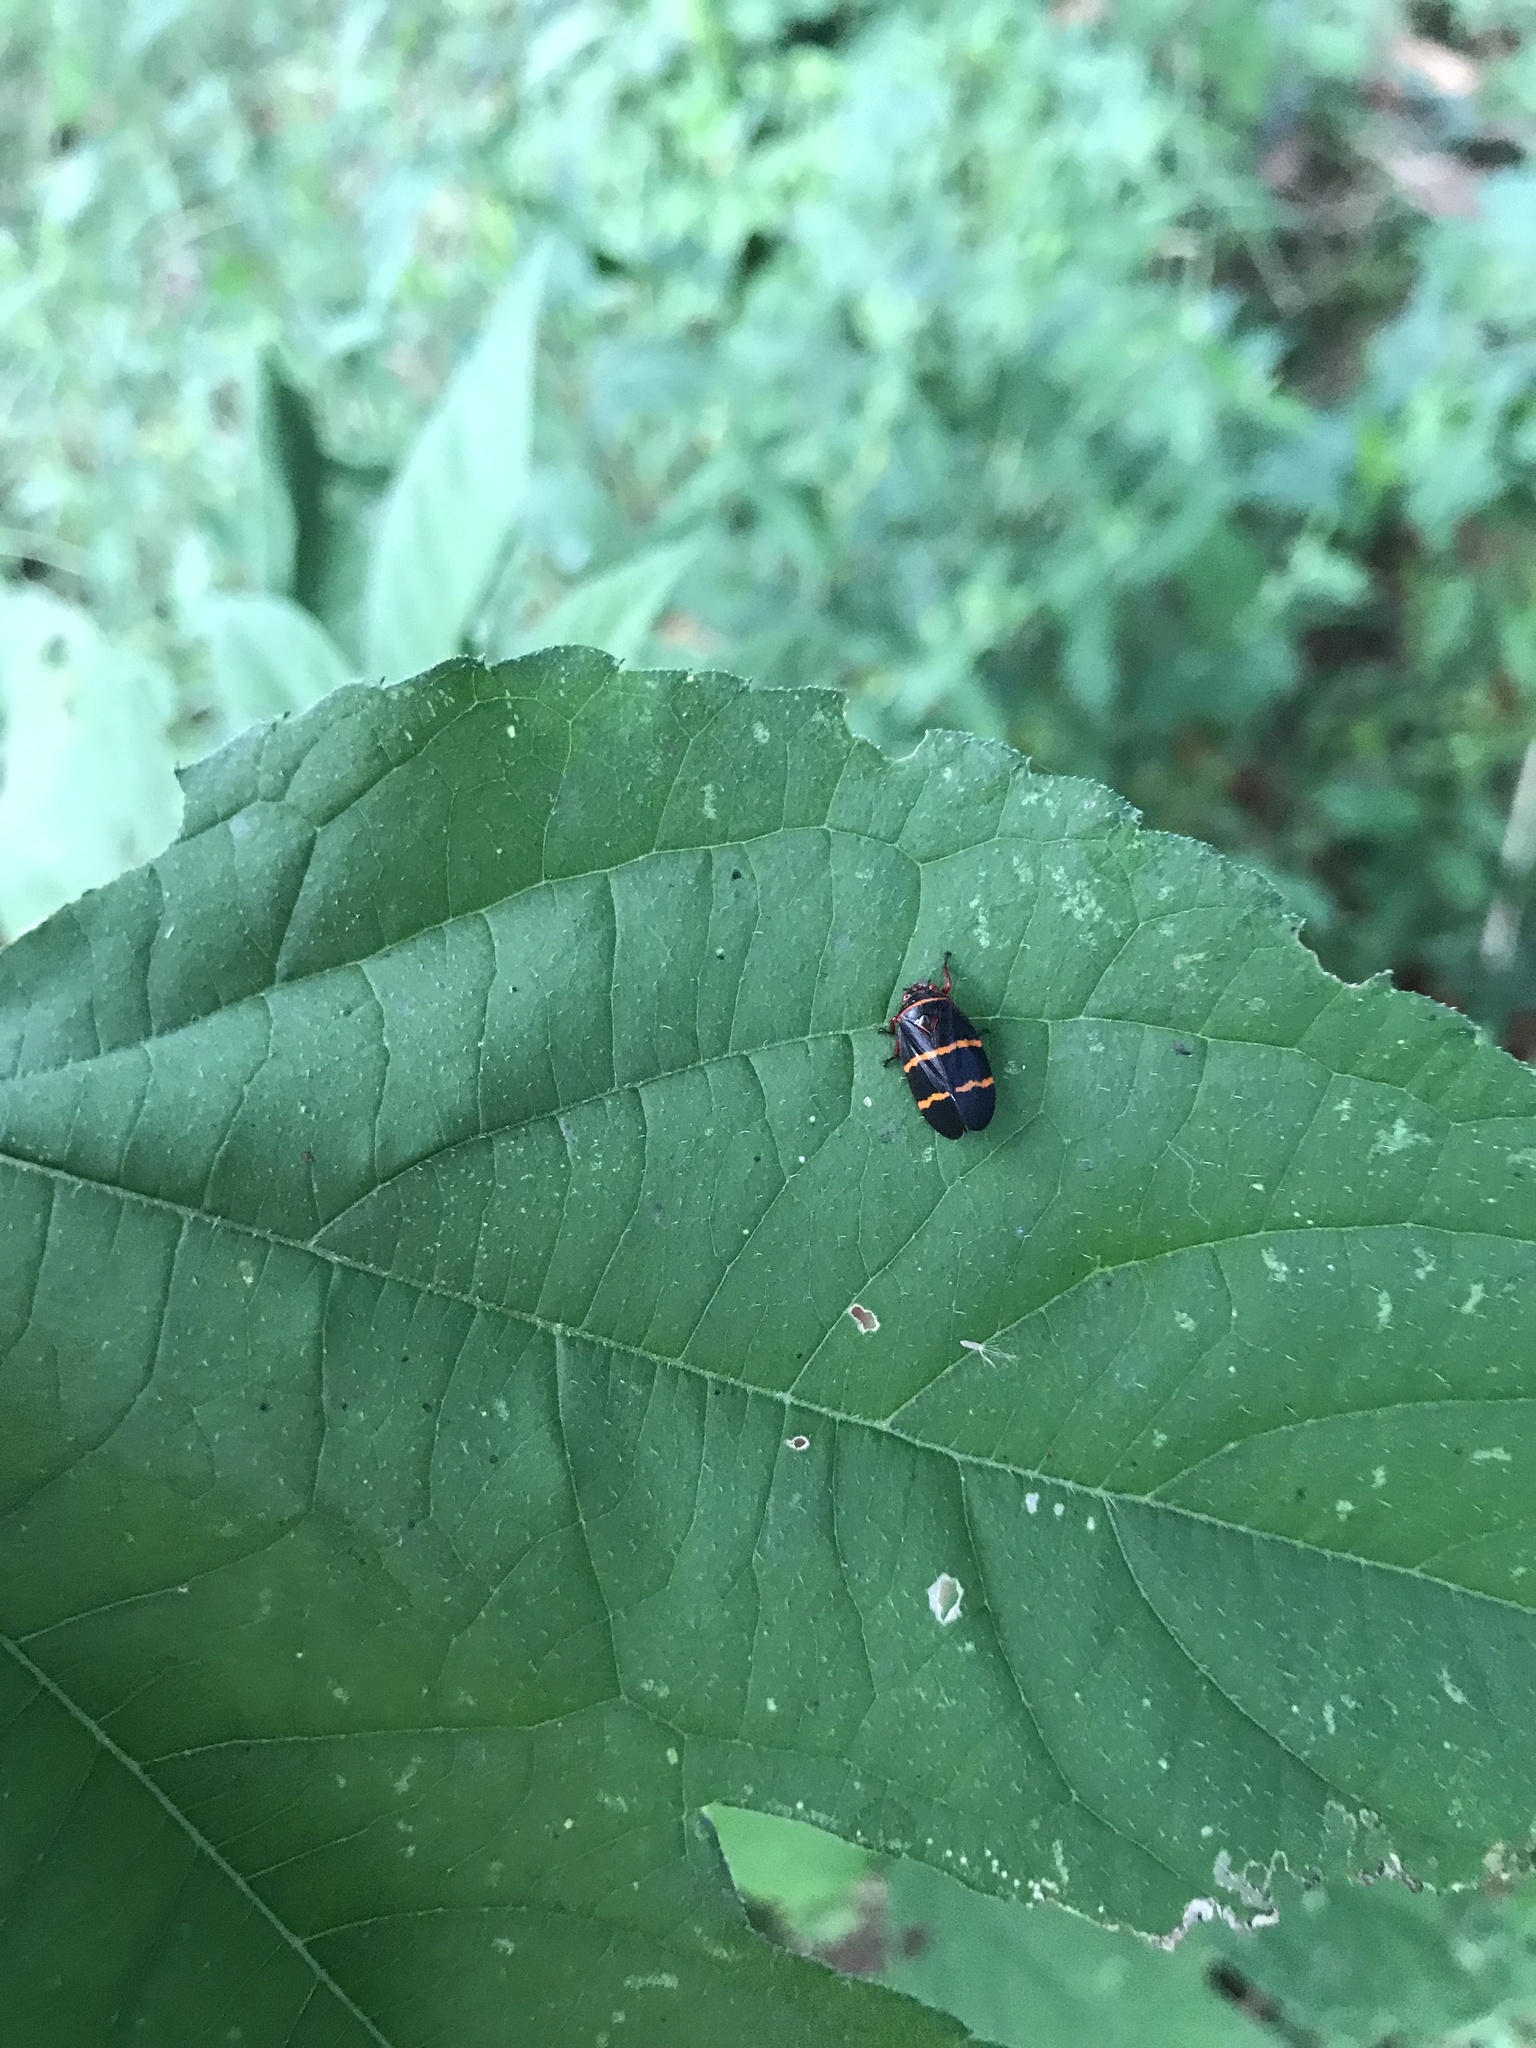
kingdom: Animalia
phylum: Arthropoda
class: Insecta
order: Hemiptera
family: Cercopidae
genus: Prosapia
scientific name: Prosapia bicincta
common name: Twolined spittlebug
